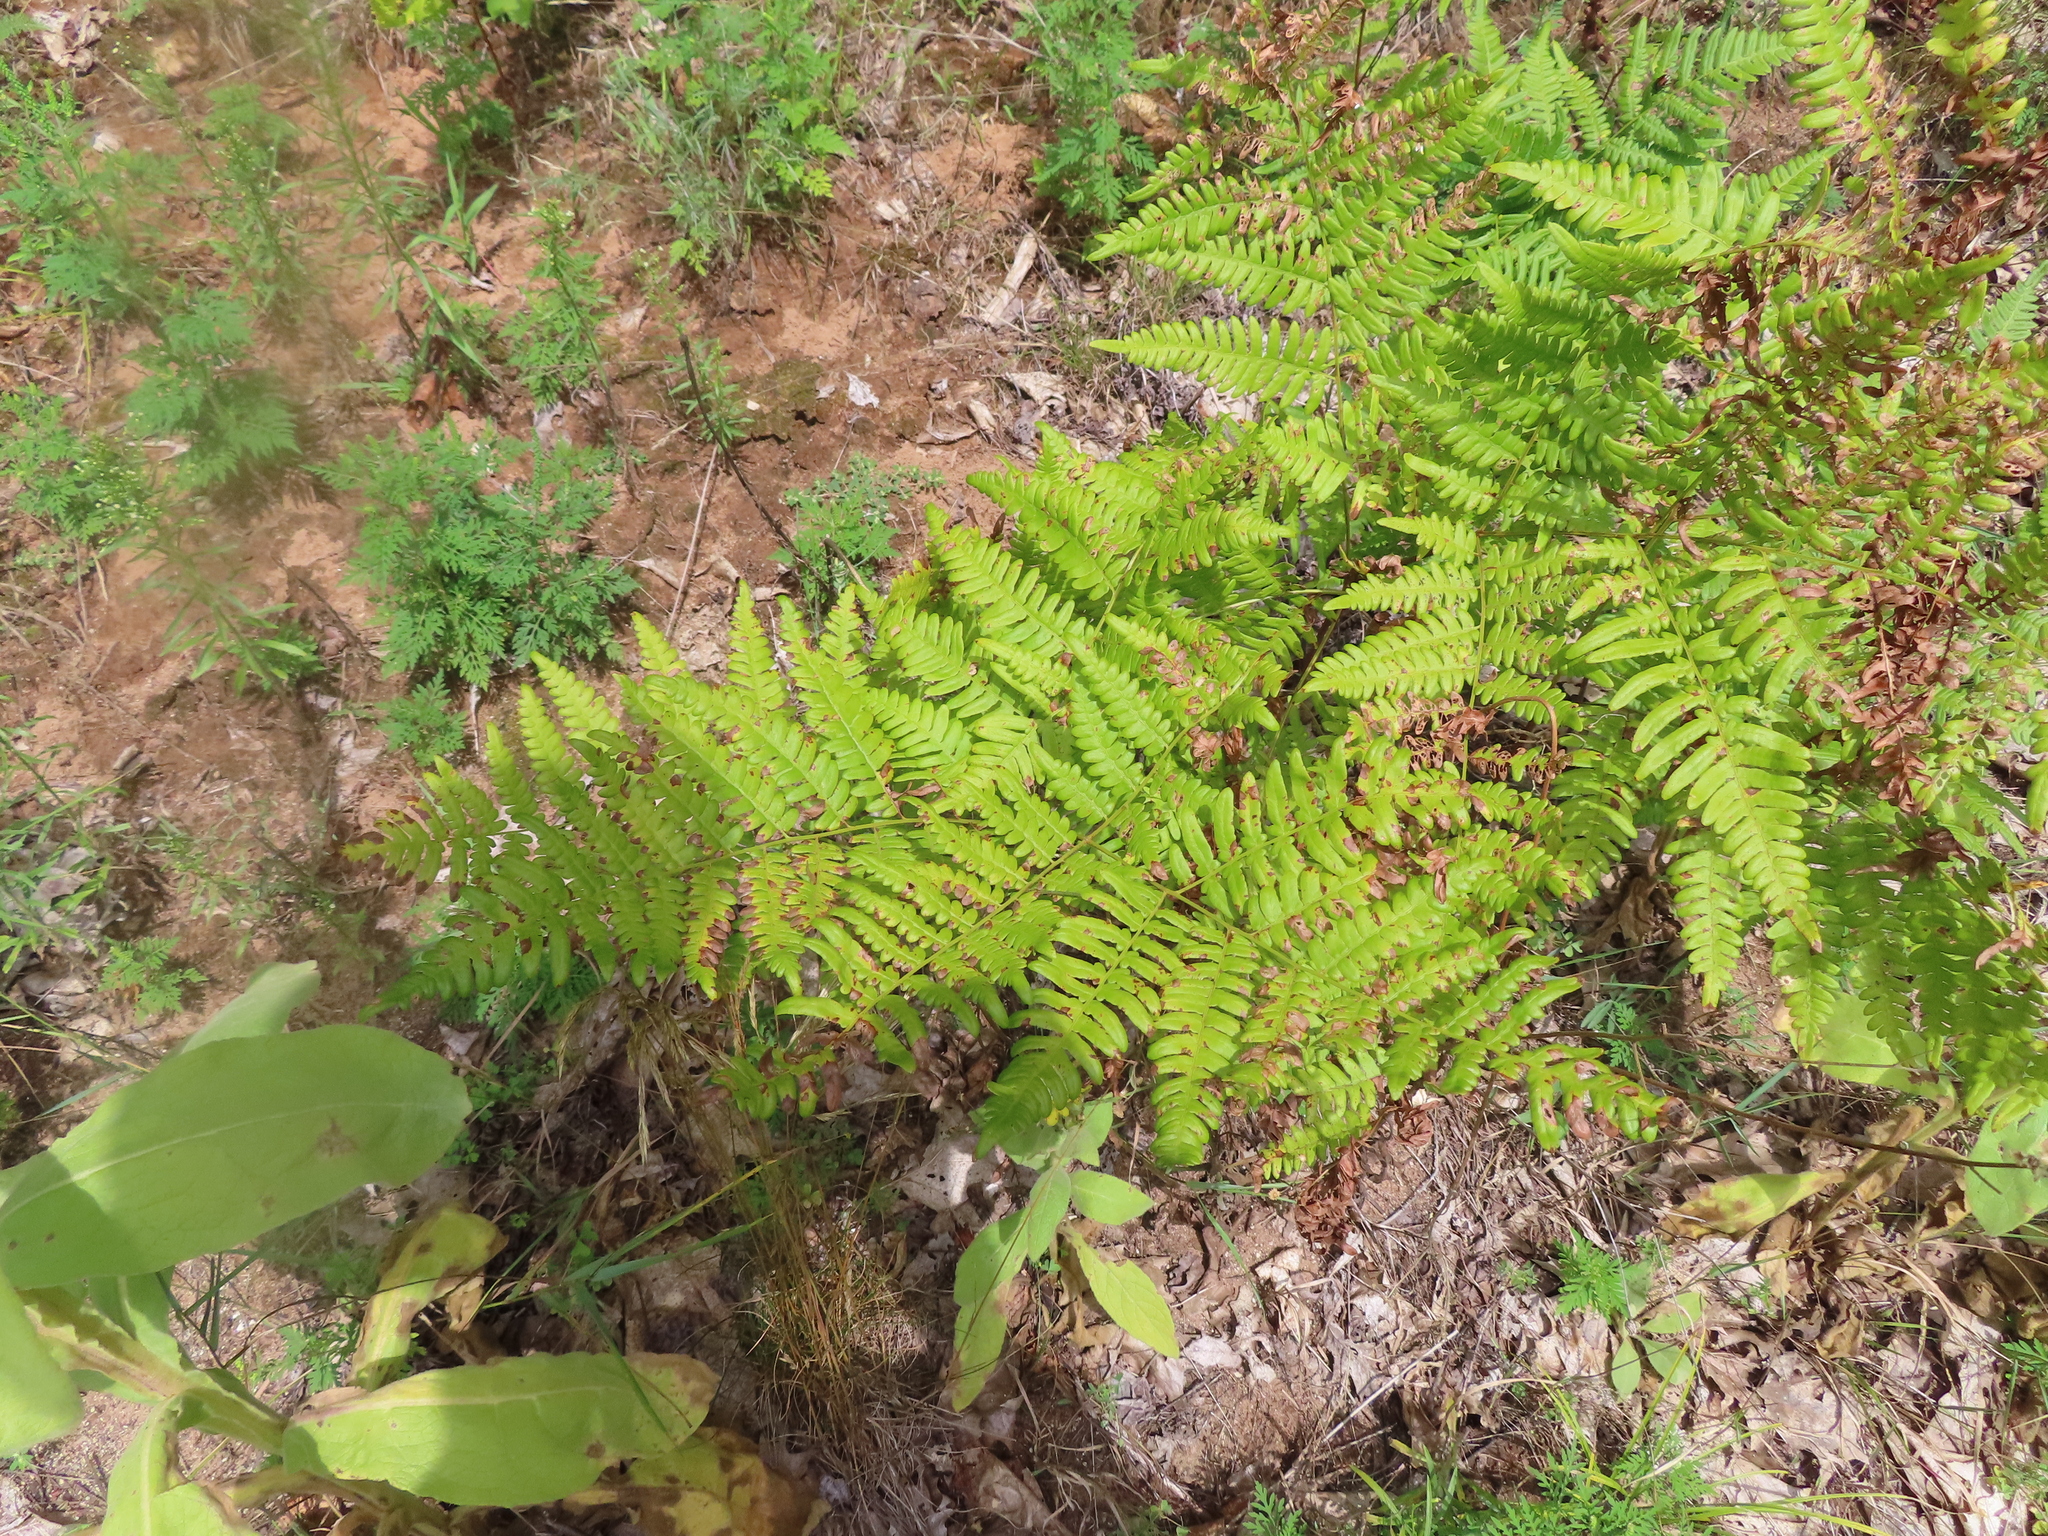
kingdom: Plantae
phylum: Tracheophyta
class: Polypodiopsida
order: Polypodiales
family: Dennstaedtiaceae
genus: Pteridium
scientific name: Pteridium aquilinum
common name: Bracken
